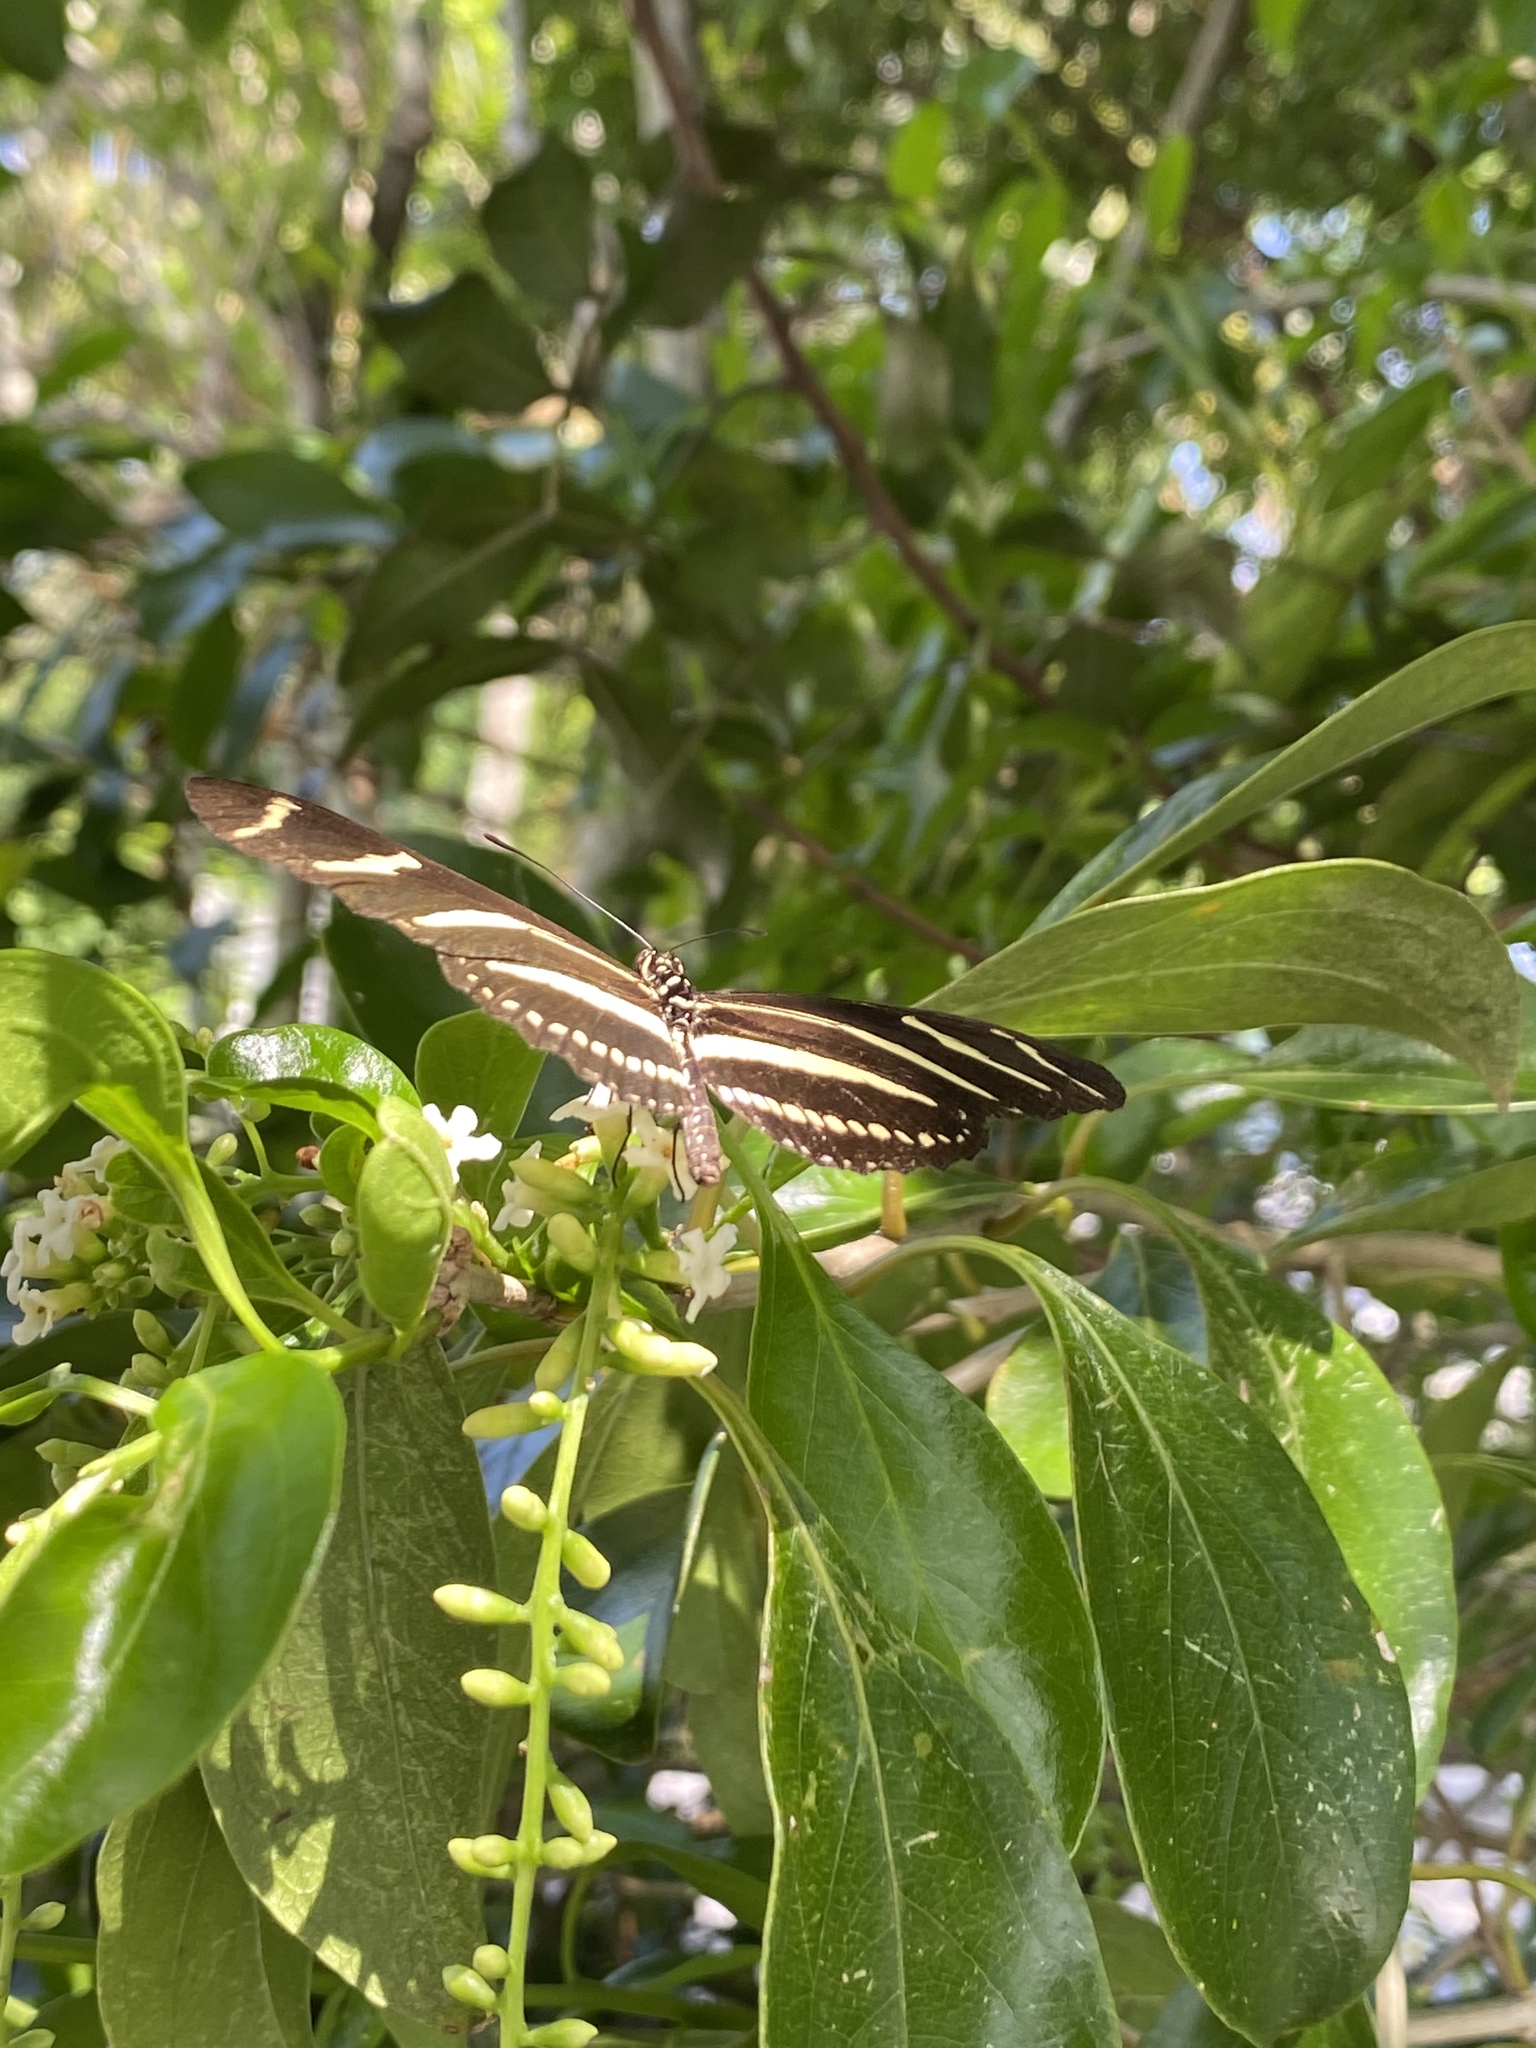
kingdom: Animalia
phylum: Arthropoda
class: Insecta
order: Lepidoptera
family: Nymphalidae
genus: Heliconius
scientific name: Heliconius charithonia
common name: Zebra long wing
